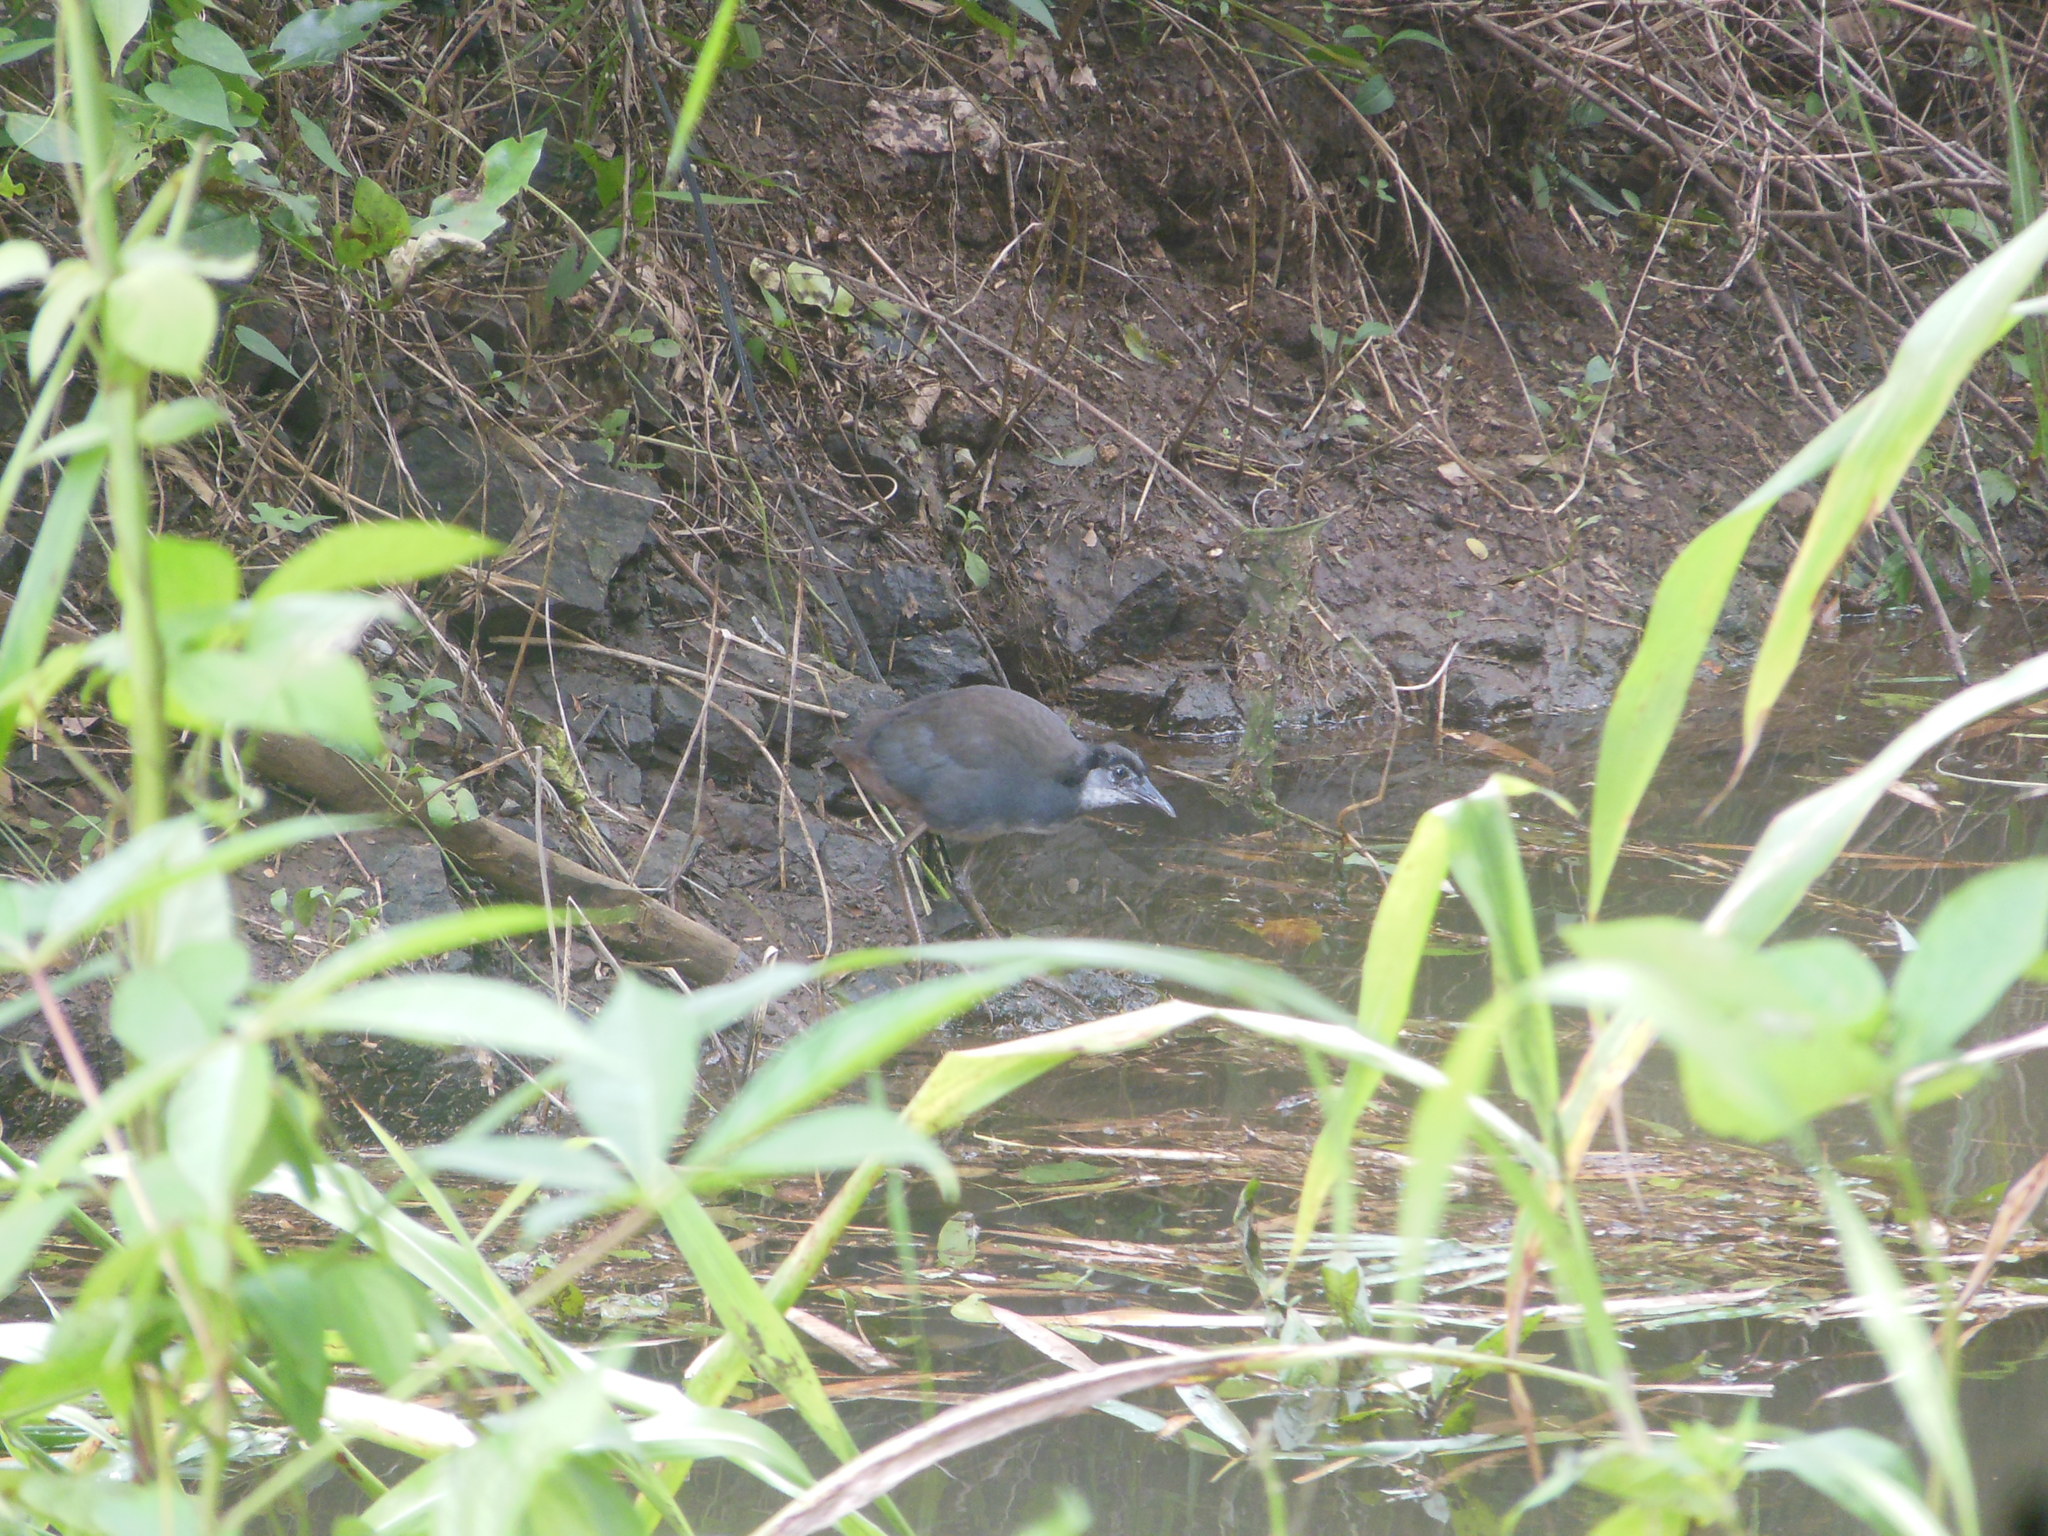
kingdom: Animalia
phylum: Chordata
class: Aves
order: Gruiformes
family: Rallidae
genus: Amaurornis
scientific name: Amaurornis phoenicurus
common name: White-breasted waterhen
